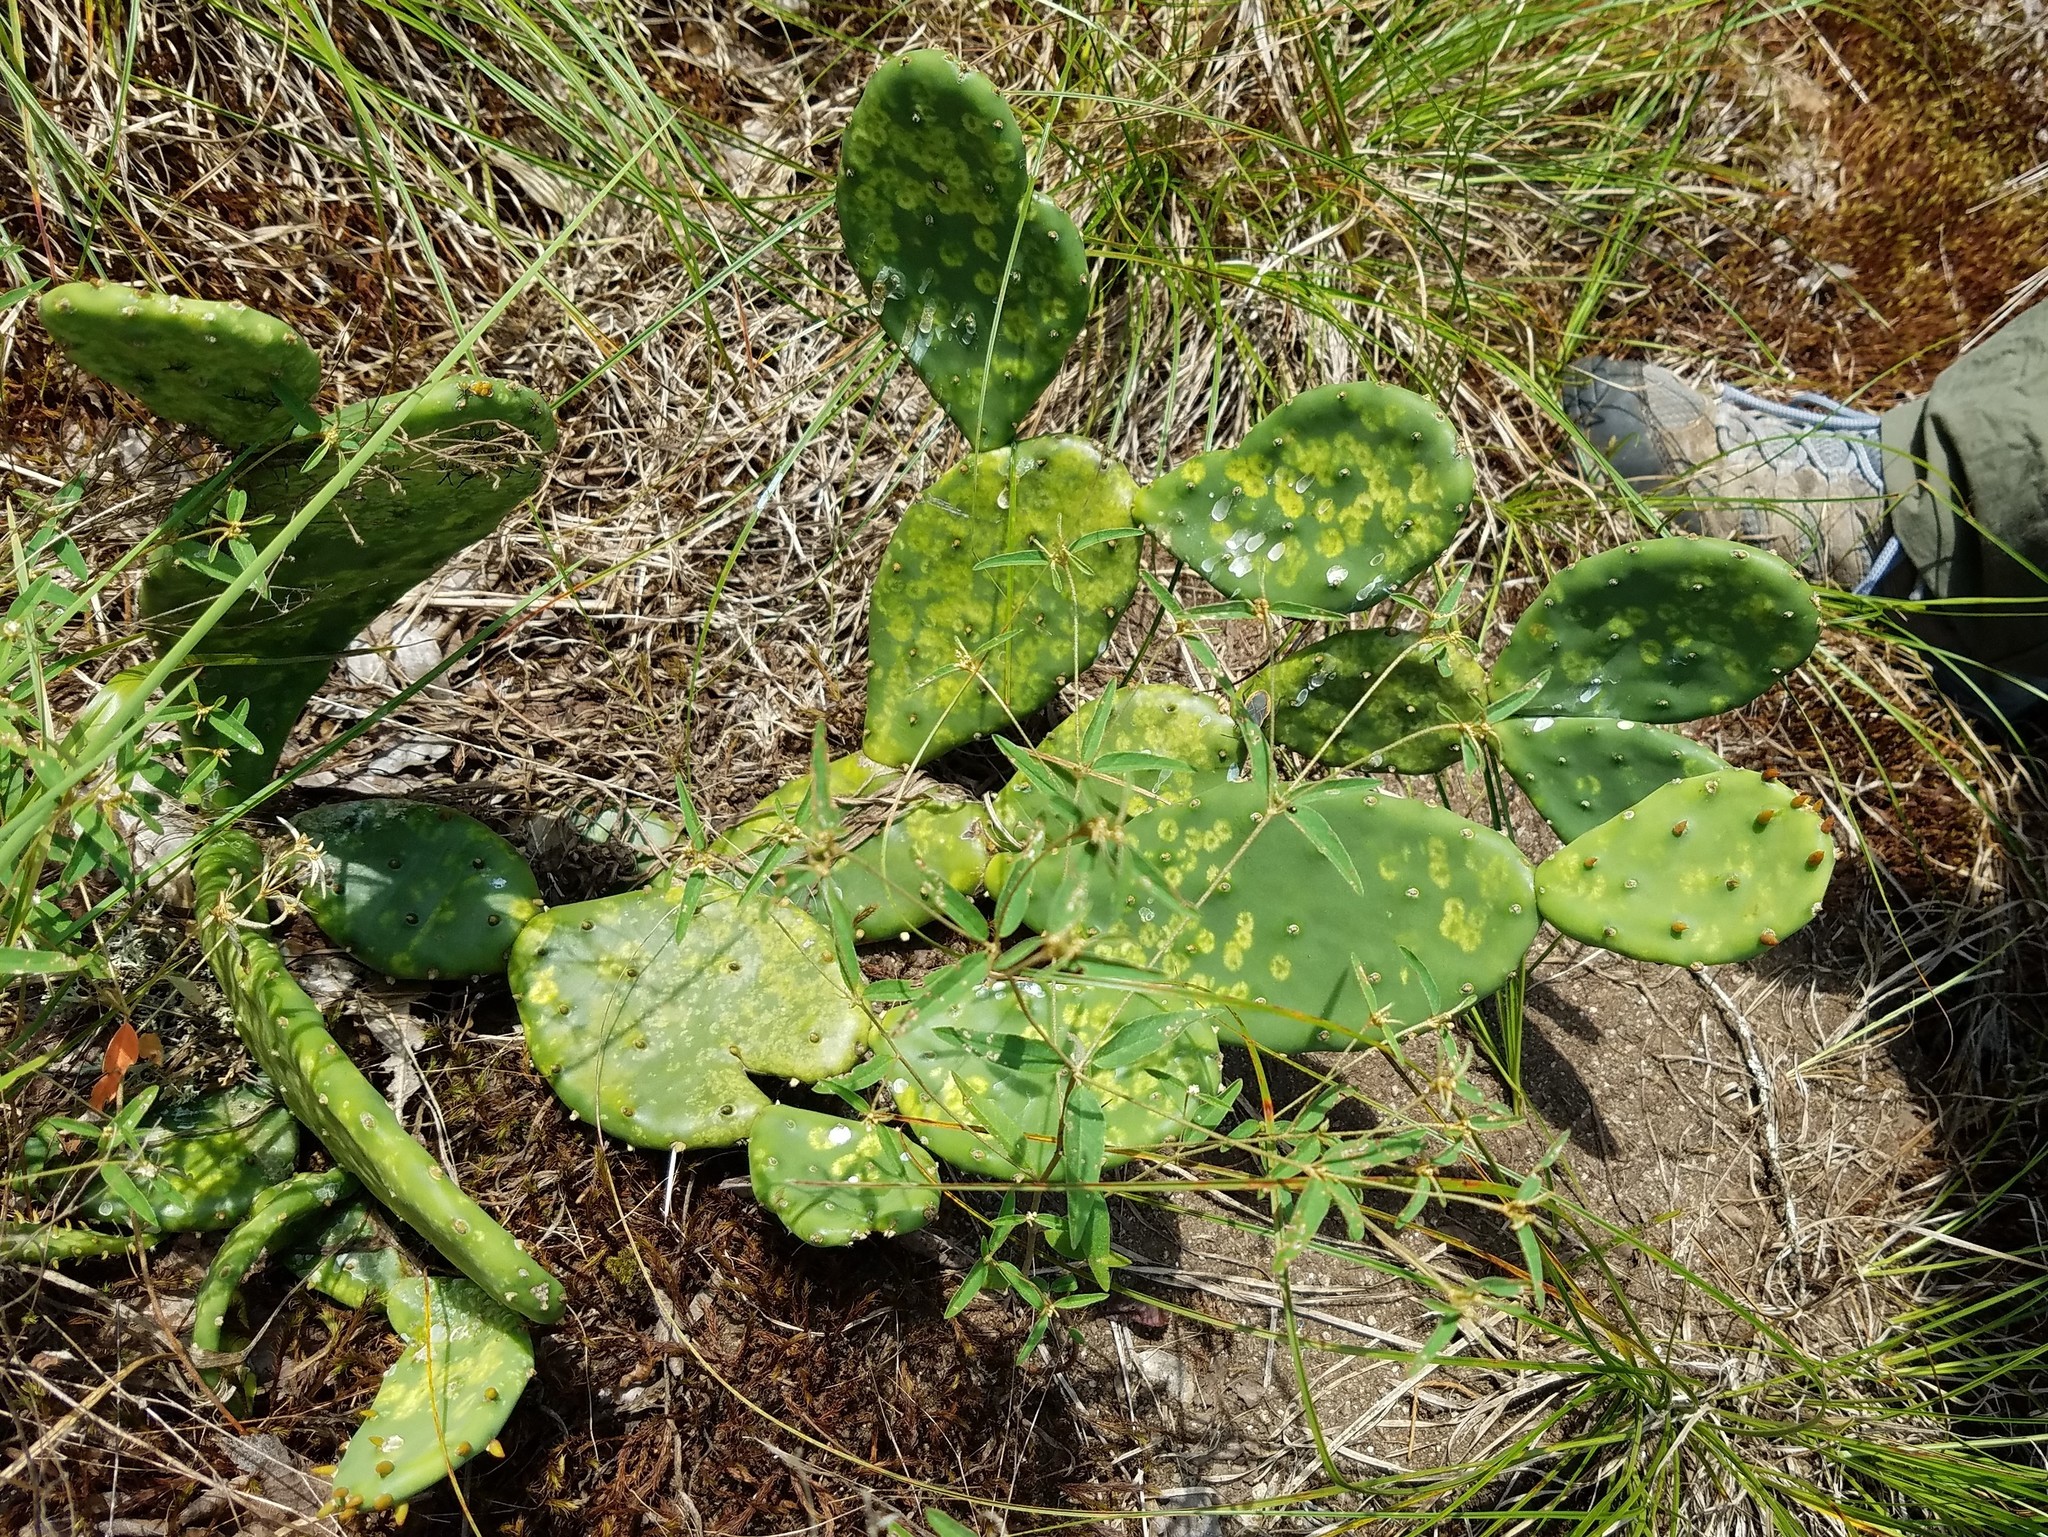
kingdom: Plantae
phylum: Tracheophyta
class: Magnoliopsida
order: Caryophyllales
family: Cactaceae
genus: Opuntia
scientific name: Opuntia mesacantha
